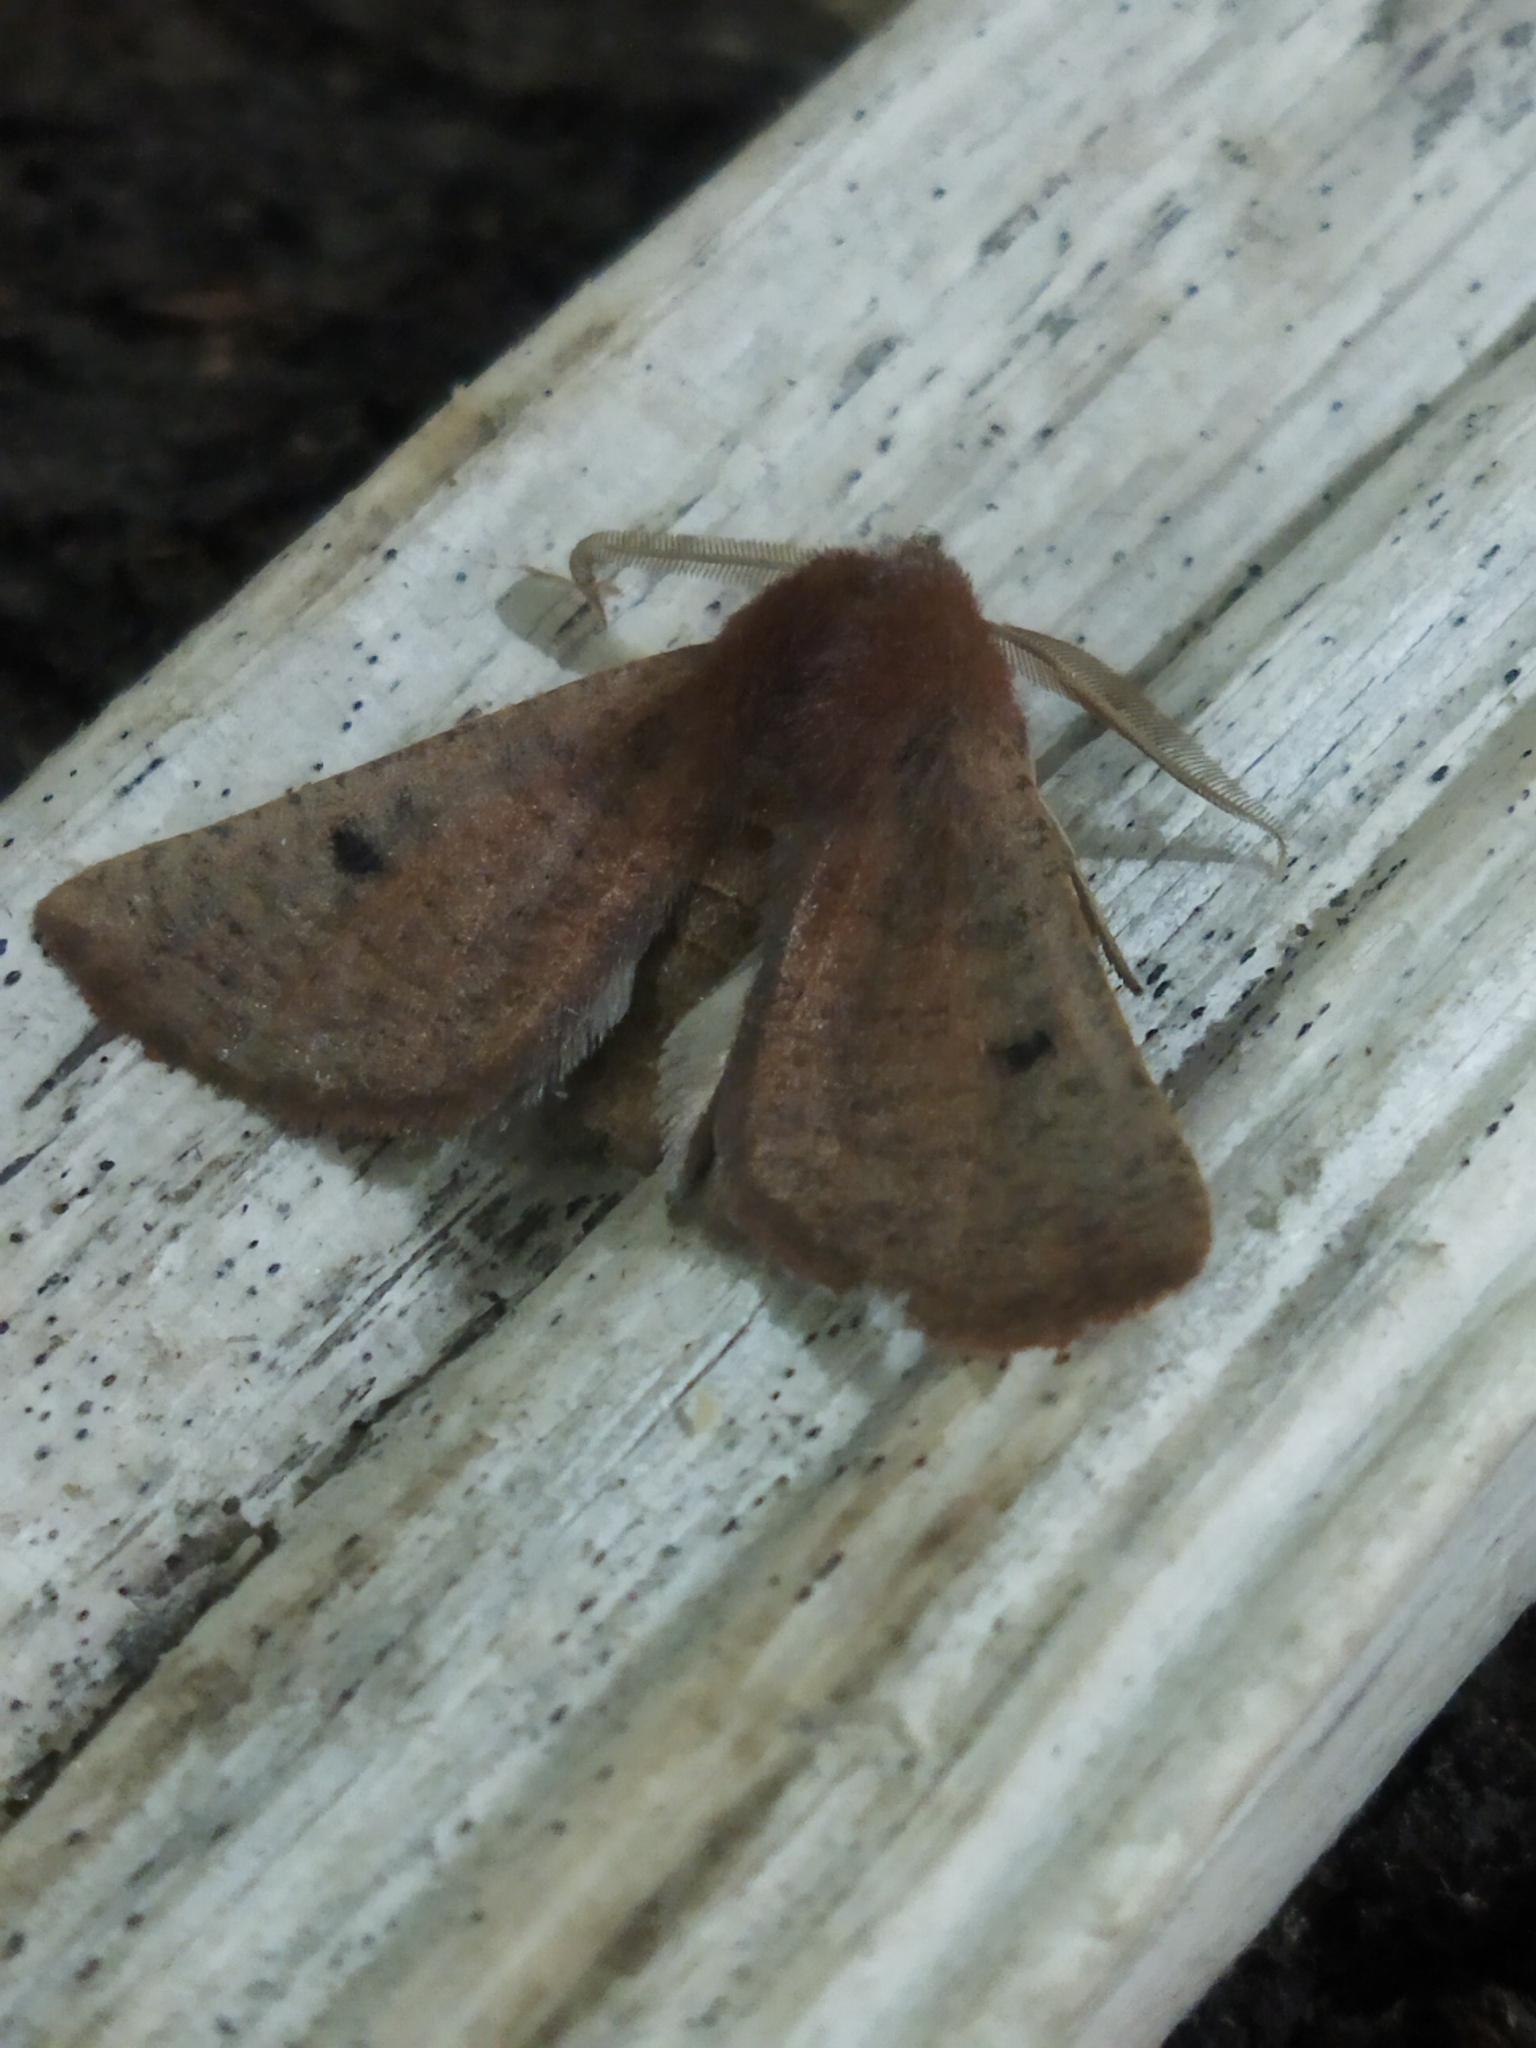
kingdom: Animalia
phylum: Arthropoda
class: Insecta
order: Lepidoptera
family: Geometridae
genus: Dasycorsa
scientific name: Dasycorsa modesta
